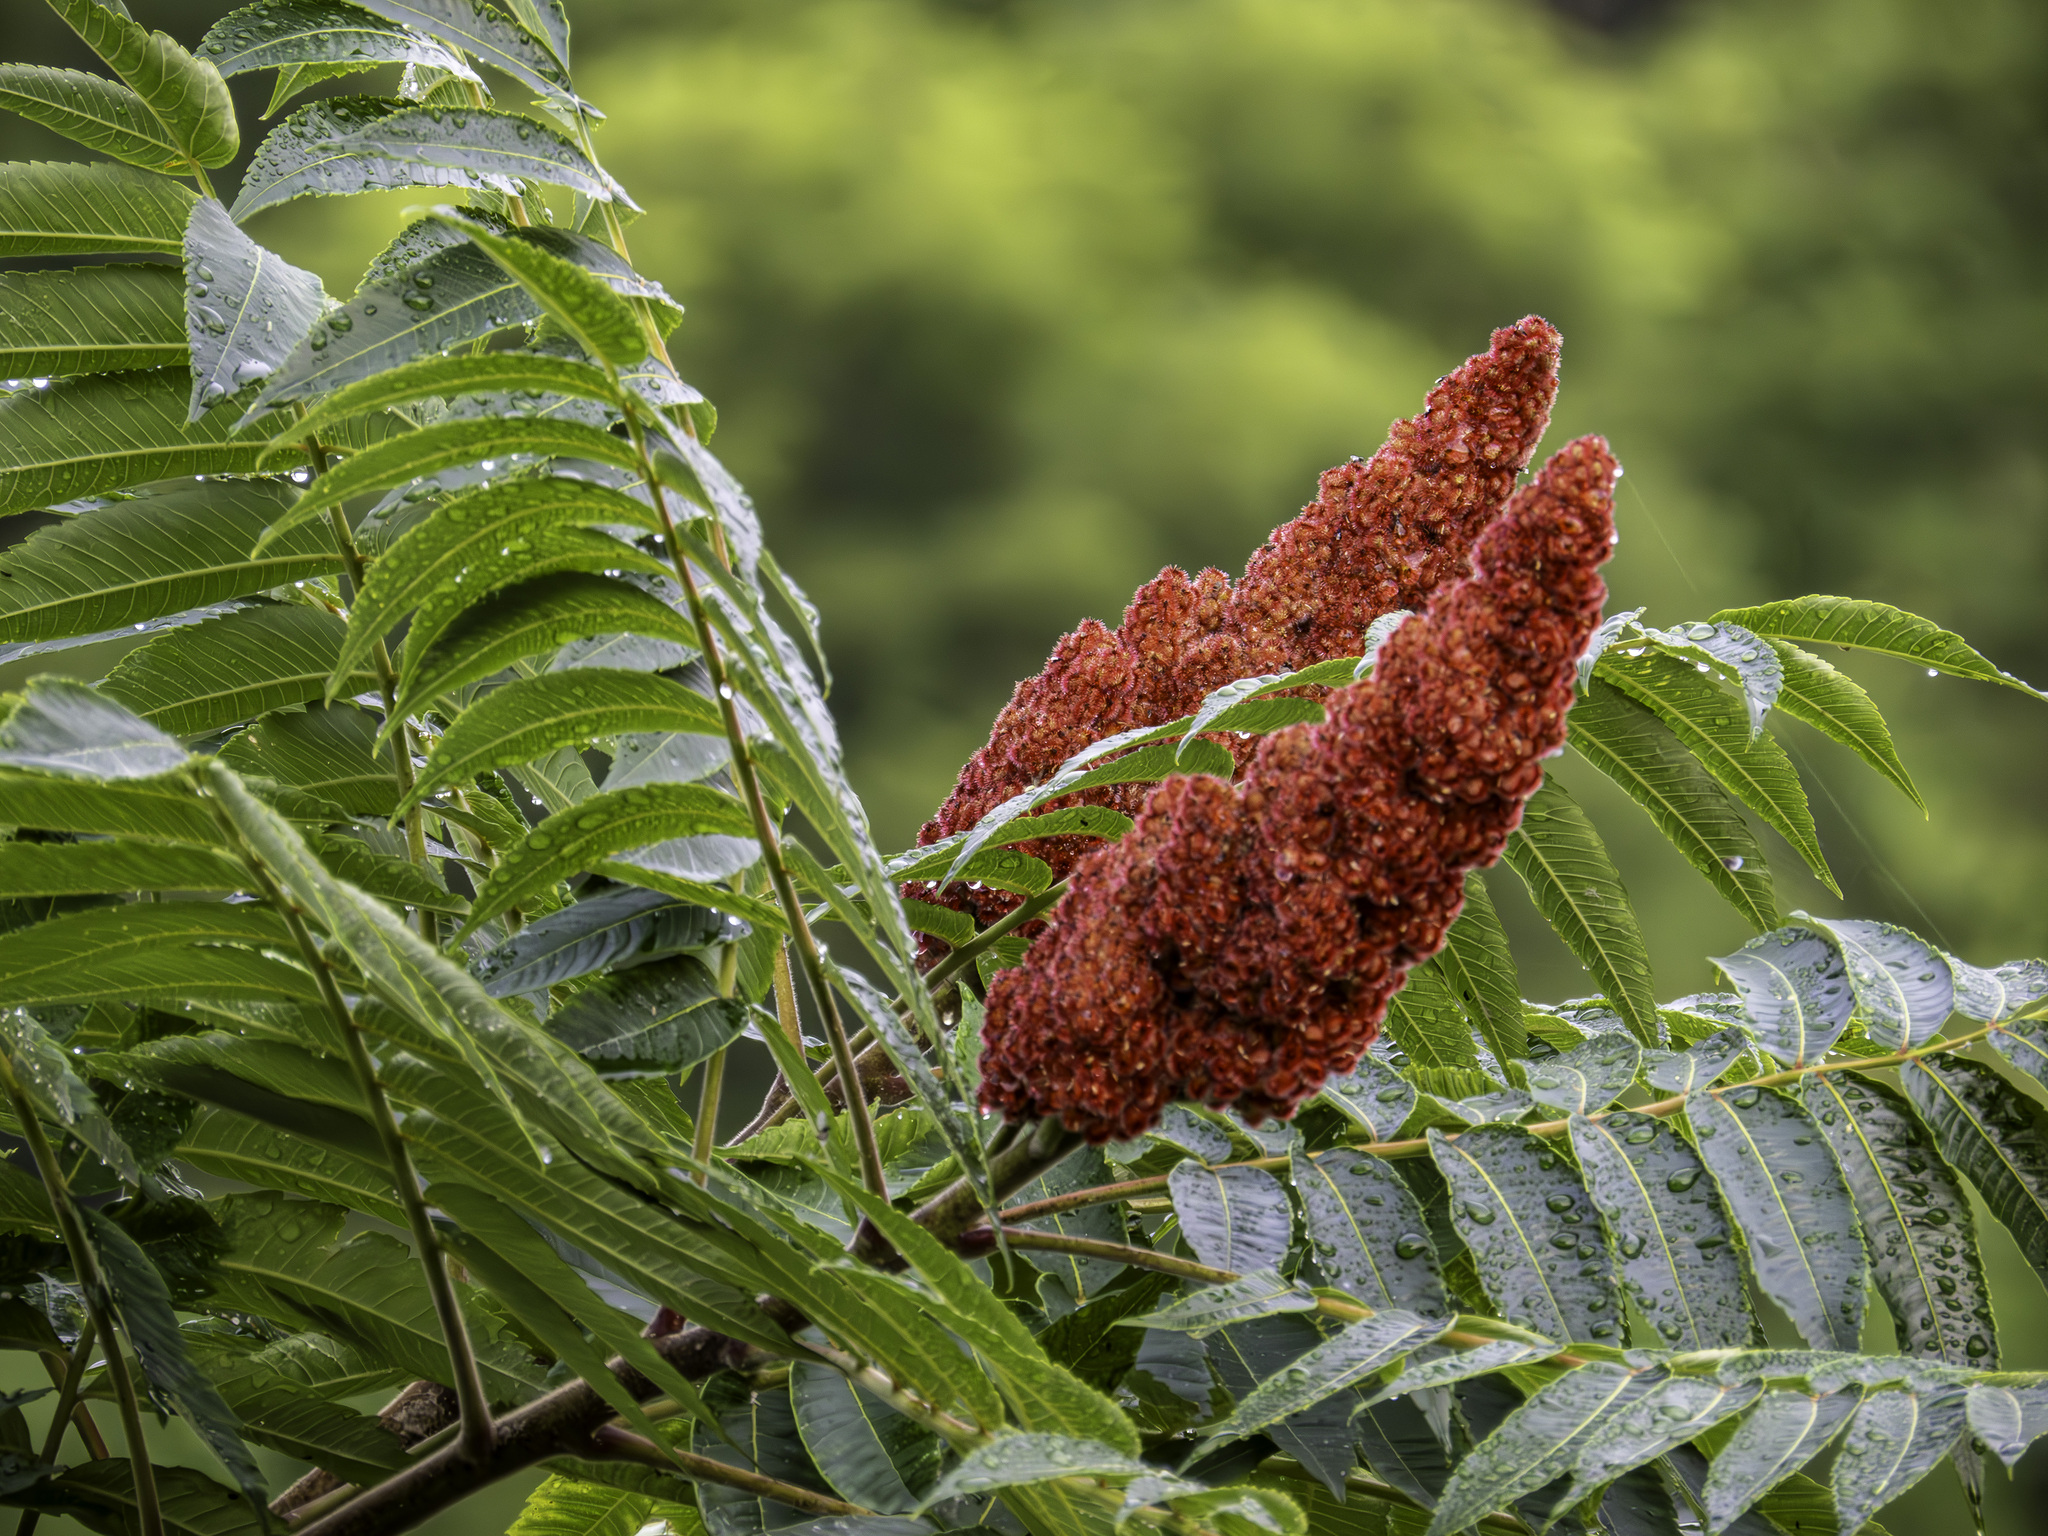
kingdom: Plantae
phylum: Tracheophyta
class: Magnoliopsida
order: Sapindales
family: Anacardiaceae
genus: Rhus
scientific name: Rhus typhina
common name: Staghorn sumac
